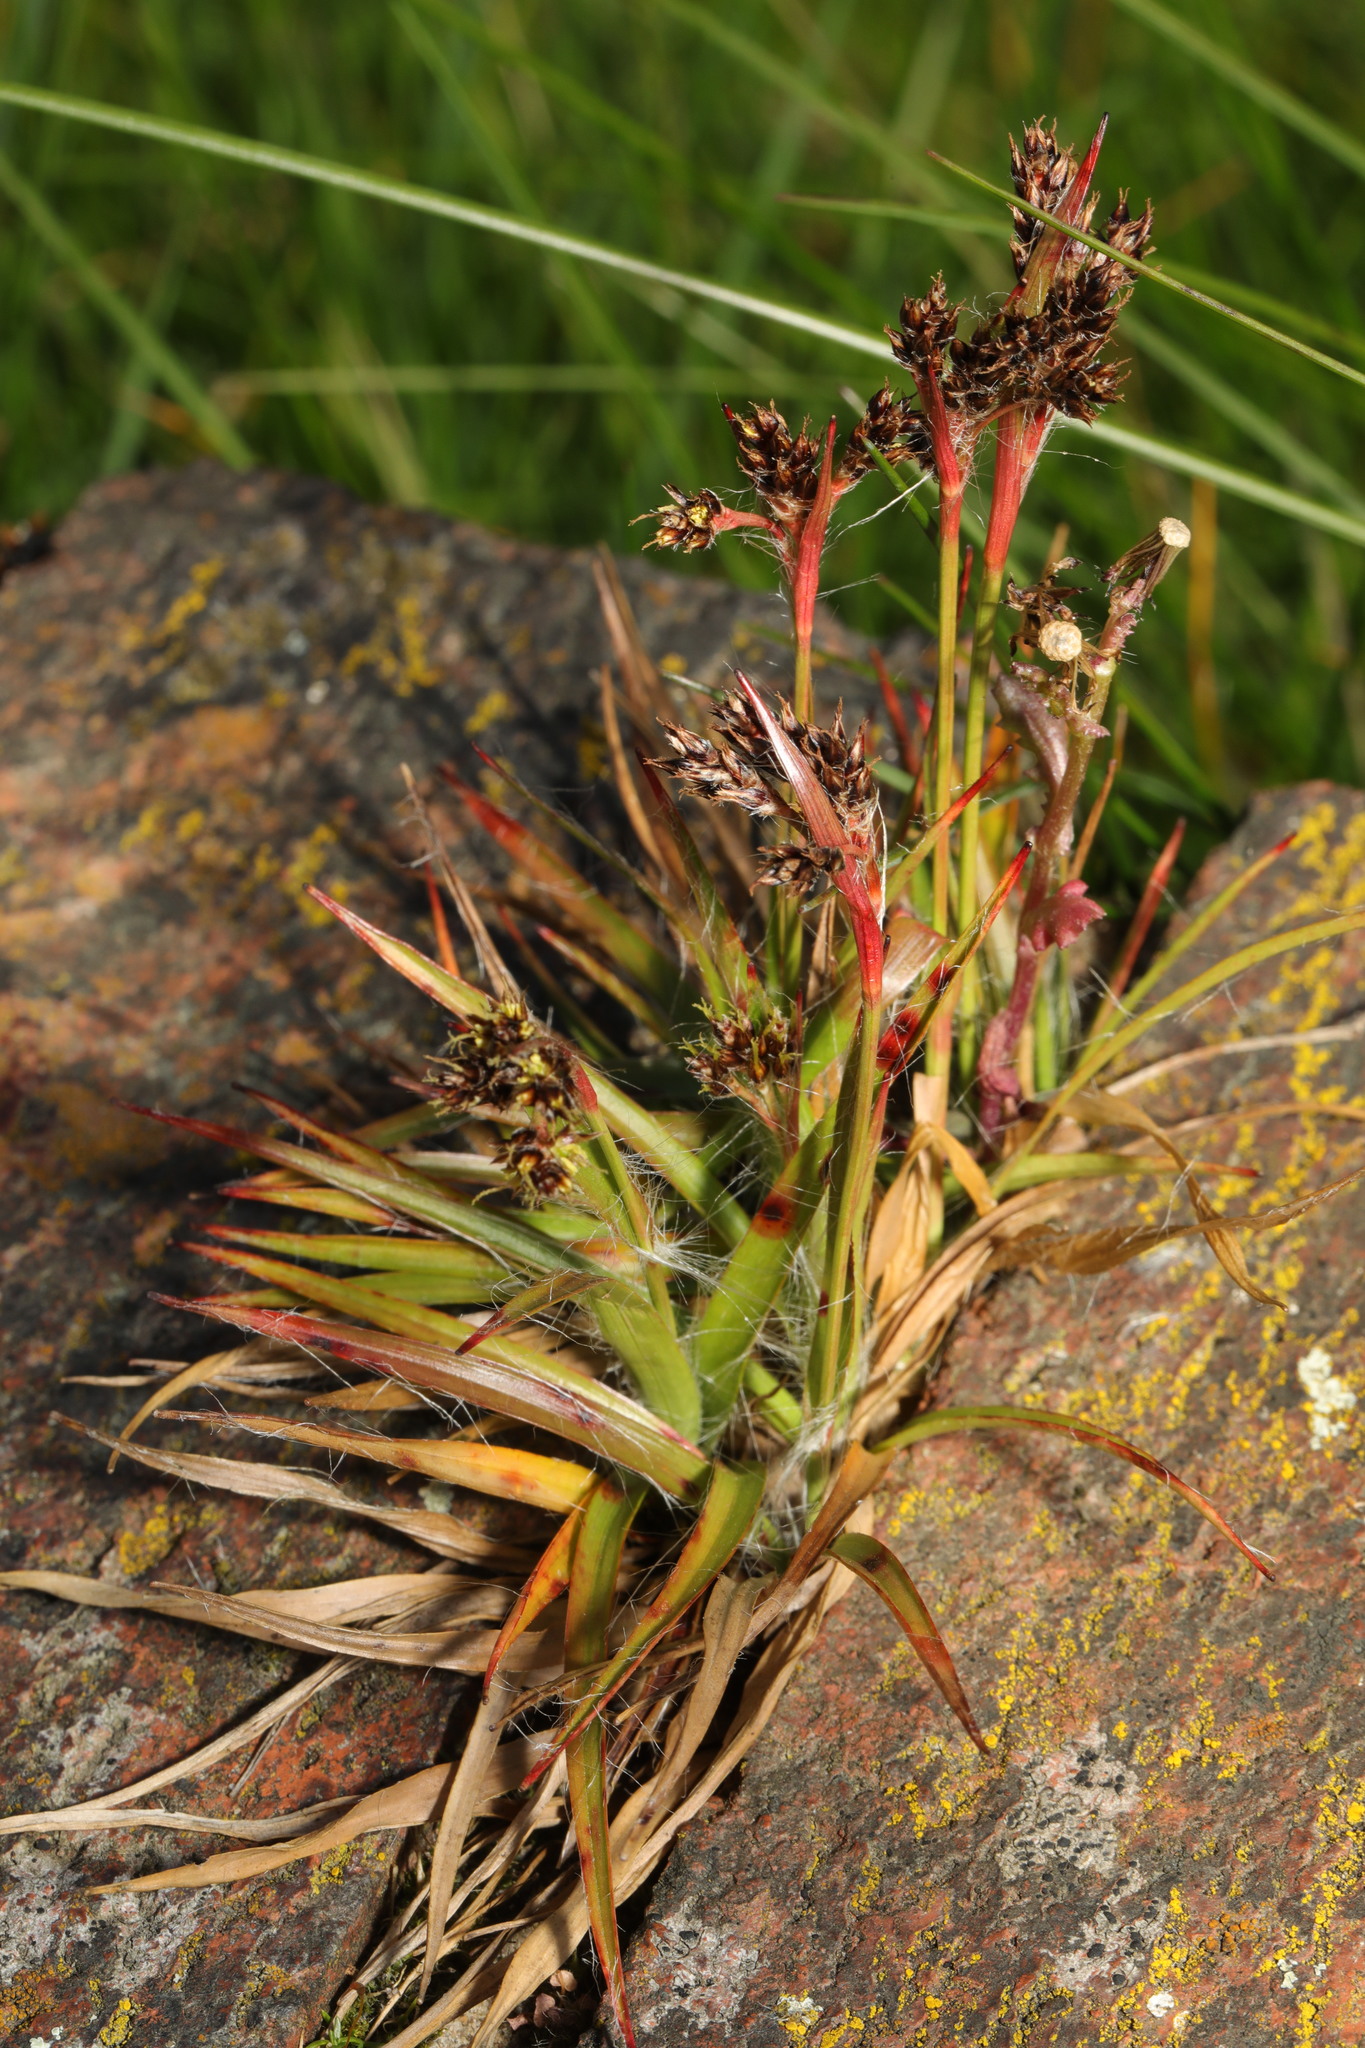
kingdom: Plantae
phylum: Tracheophyta
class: Liliopsida
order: Poales
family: Juncaceae
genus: Luzula
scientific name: Luzula campestris
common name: Field wood-rush
